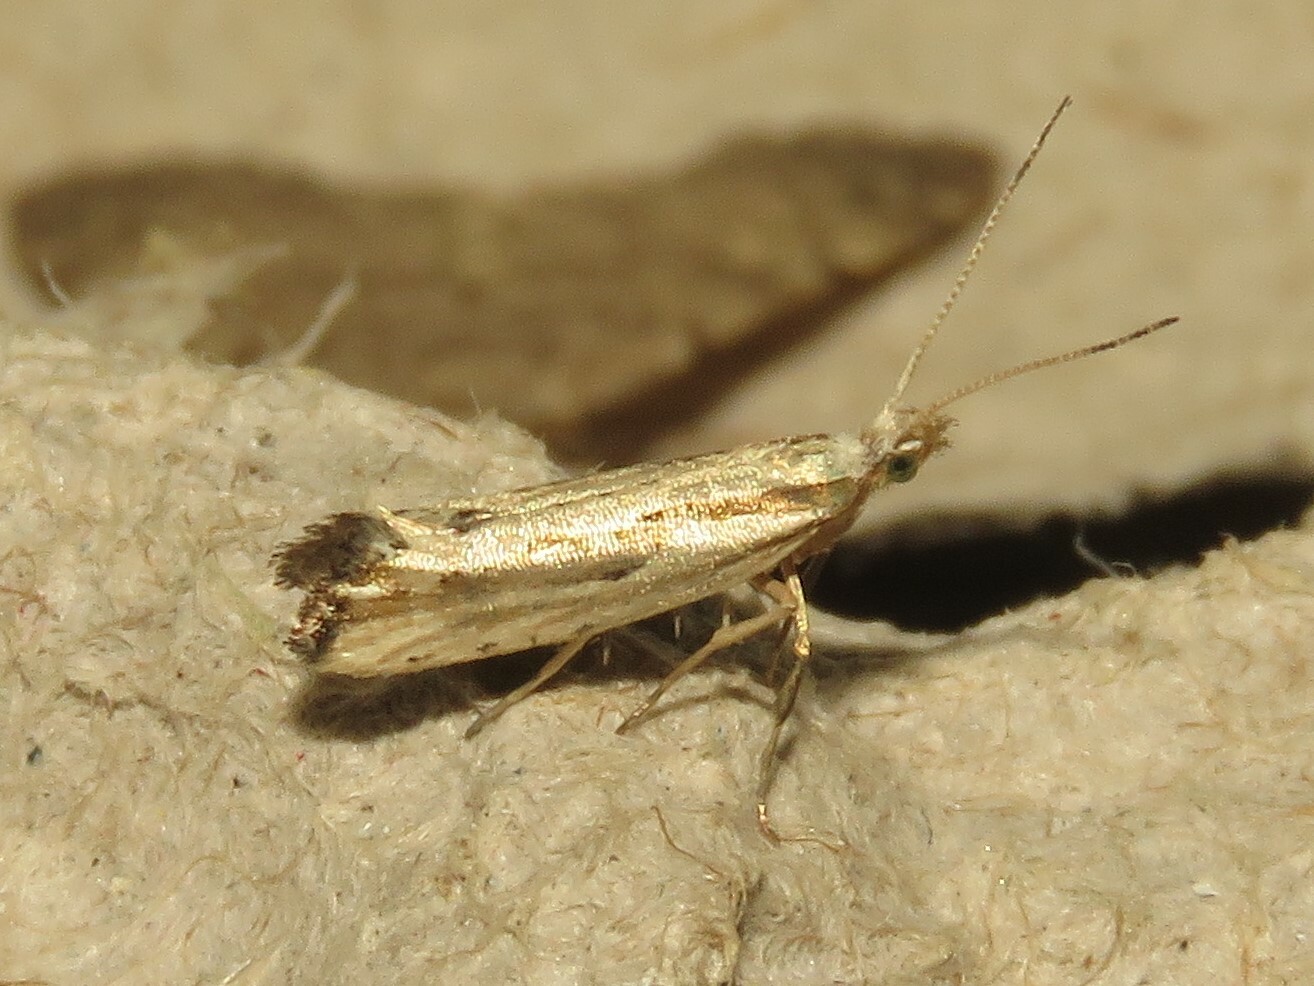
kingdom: Animalia
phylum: Arthropoda
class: Insecta
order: Lepidoptera
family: Plutellidae
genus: Plutella
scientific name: Plutella porrectella
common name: Dame's rocket moth
